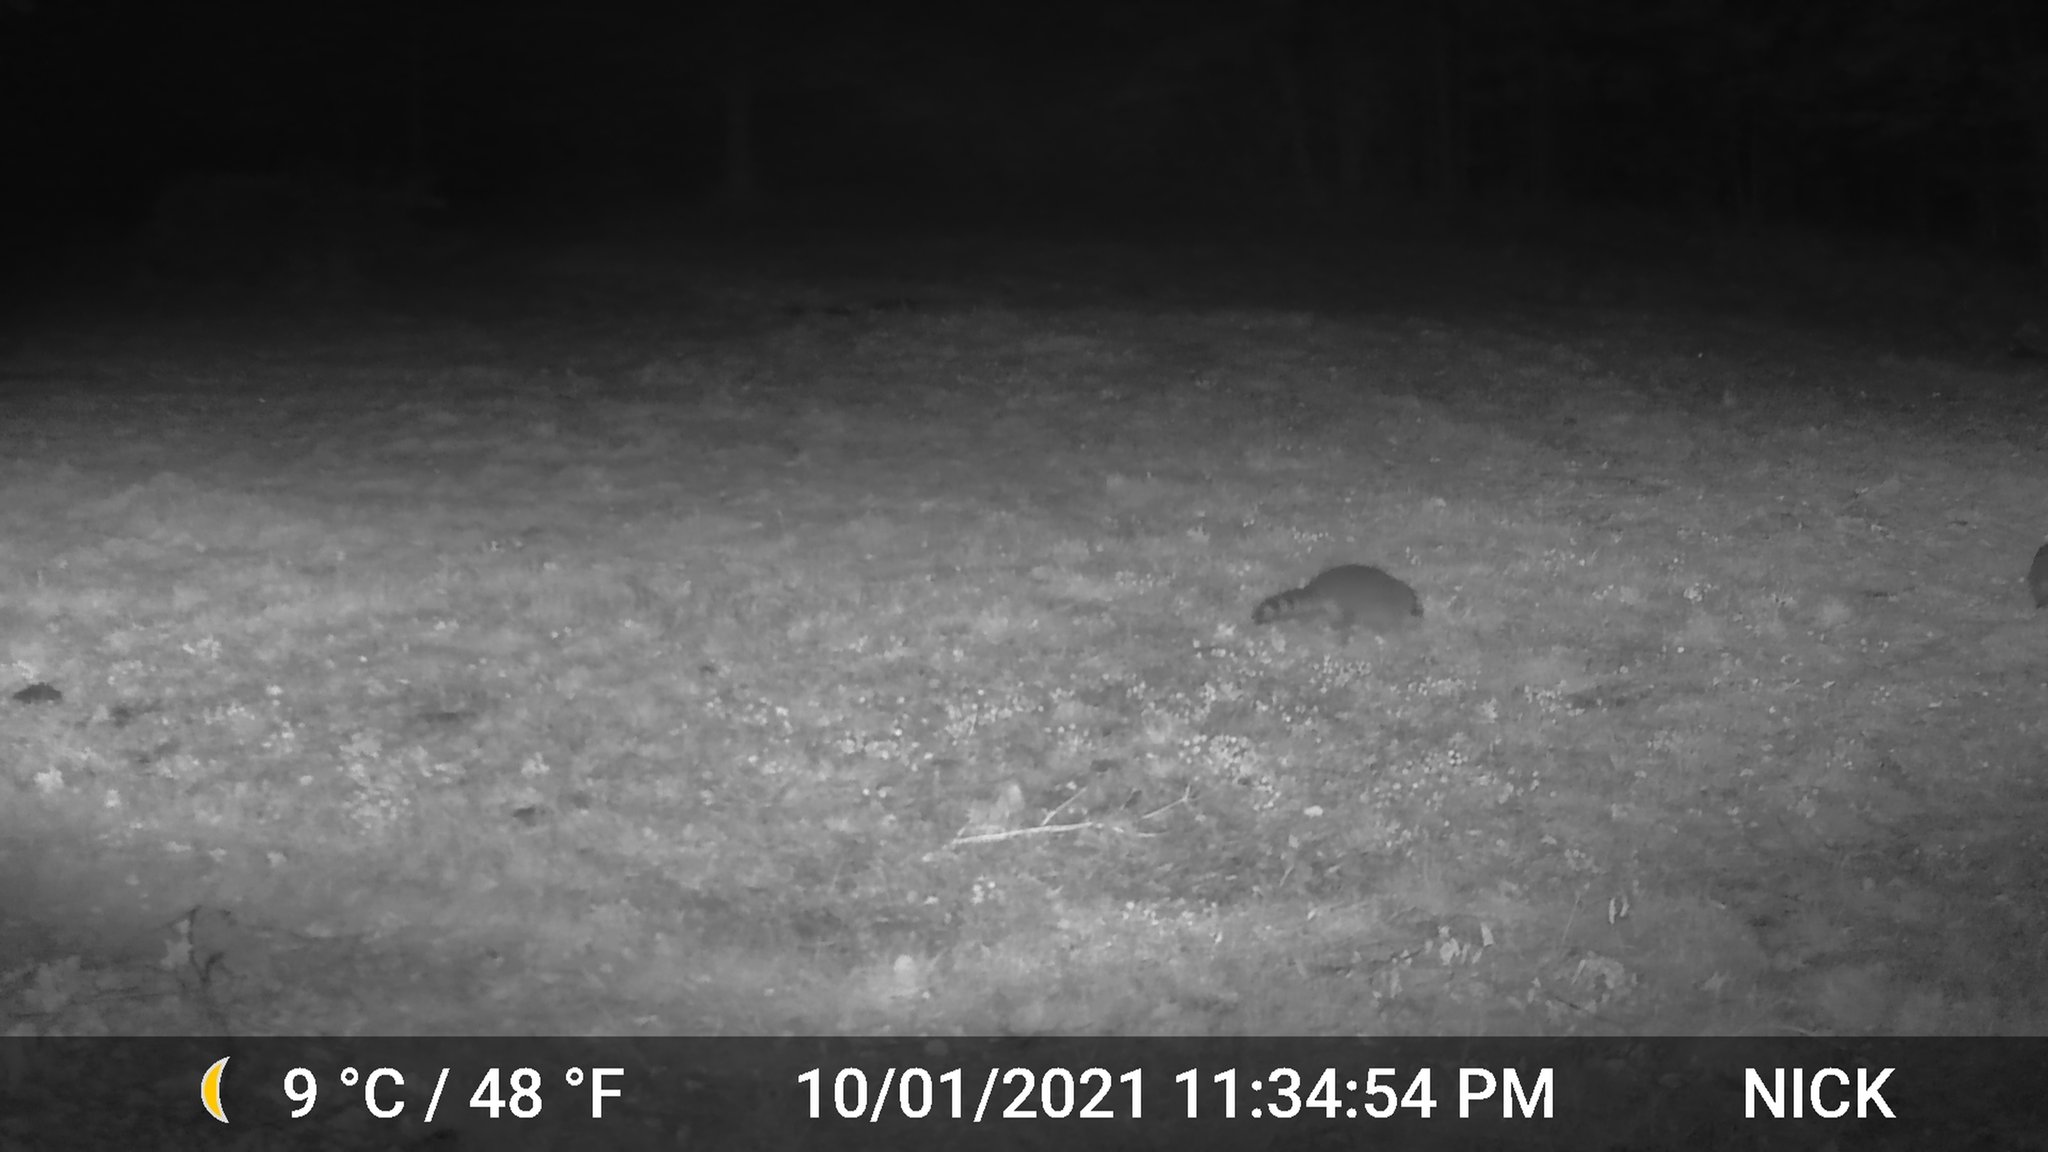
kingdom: Animalia
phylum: Chordata
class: Mammalia
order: Carnivora
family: Procyonidae
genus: Procyon
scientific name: Procyon lotor
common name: Raccoon
